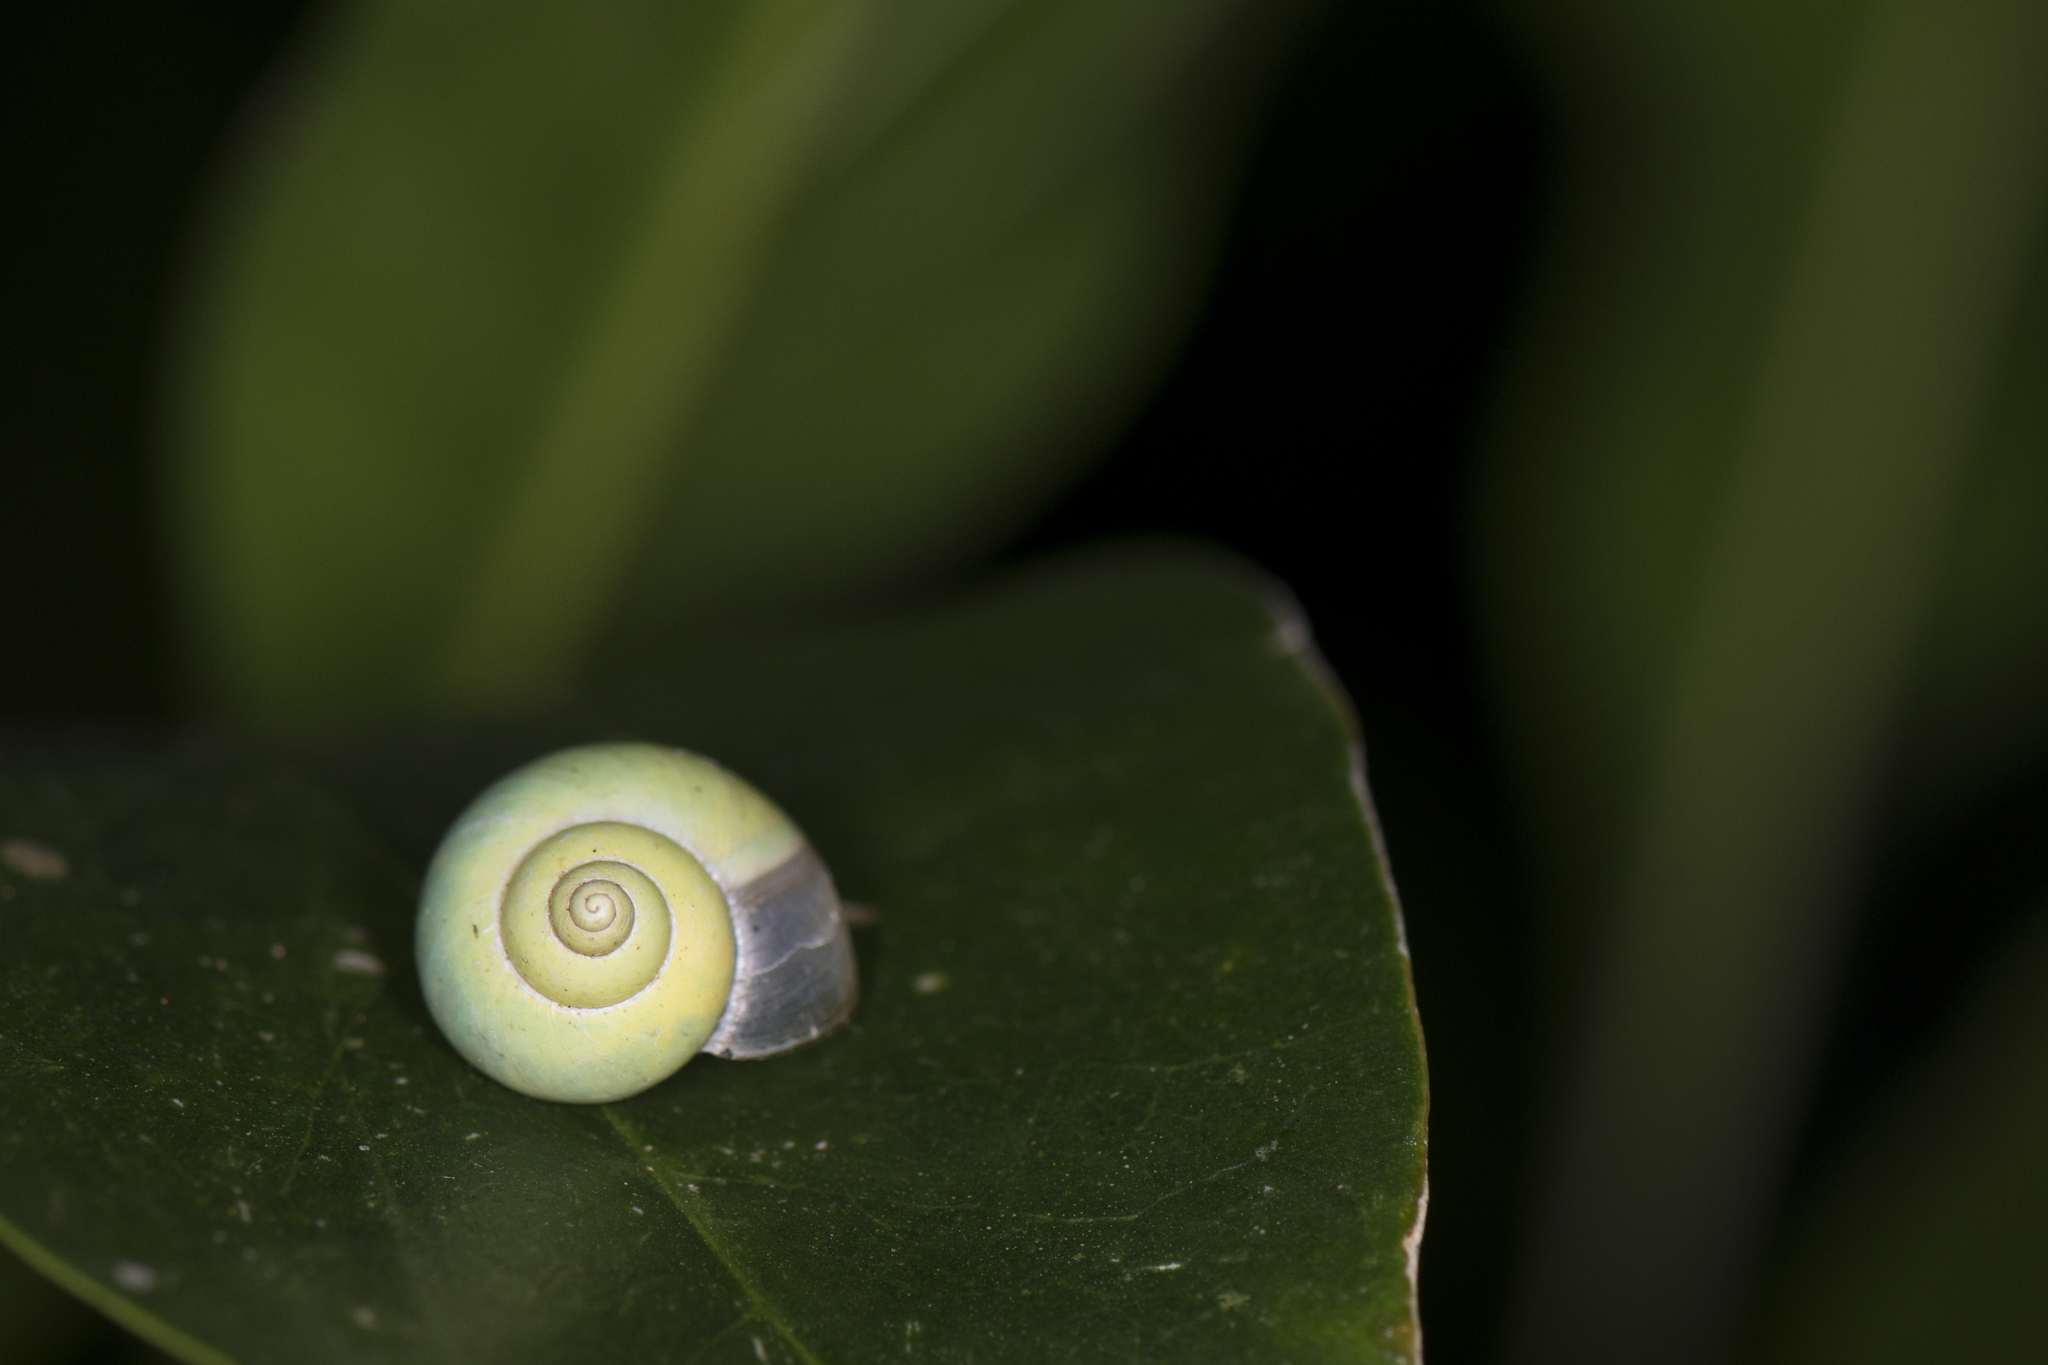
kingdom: Animalia
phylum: Mollusca
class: Gastropoda
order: Architaenioglossa
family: Cyclophoridae
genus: Leptopoma
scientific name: Leptopoma nitidum
